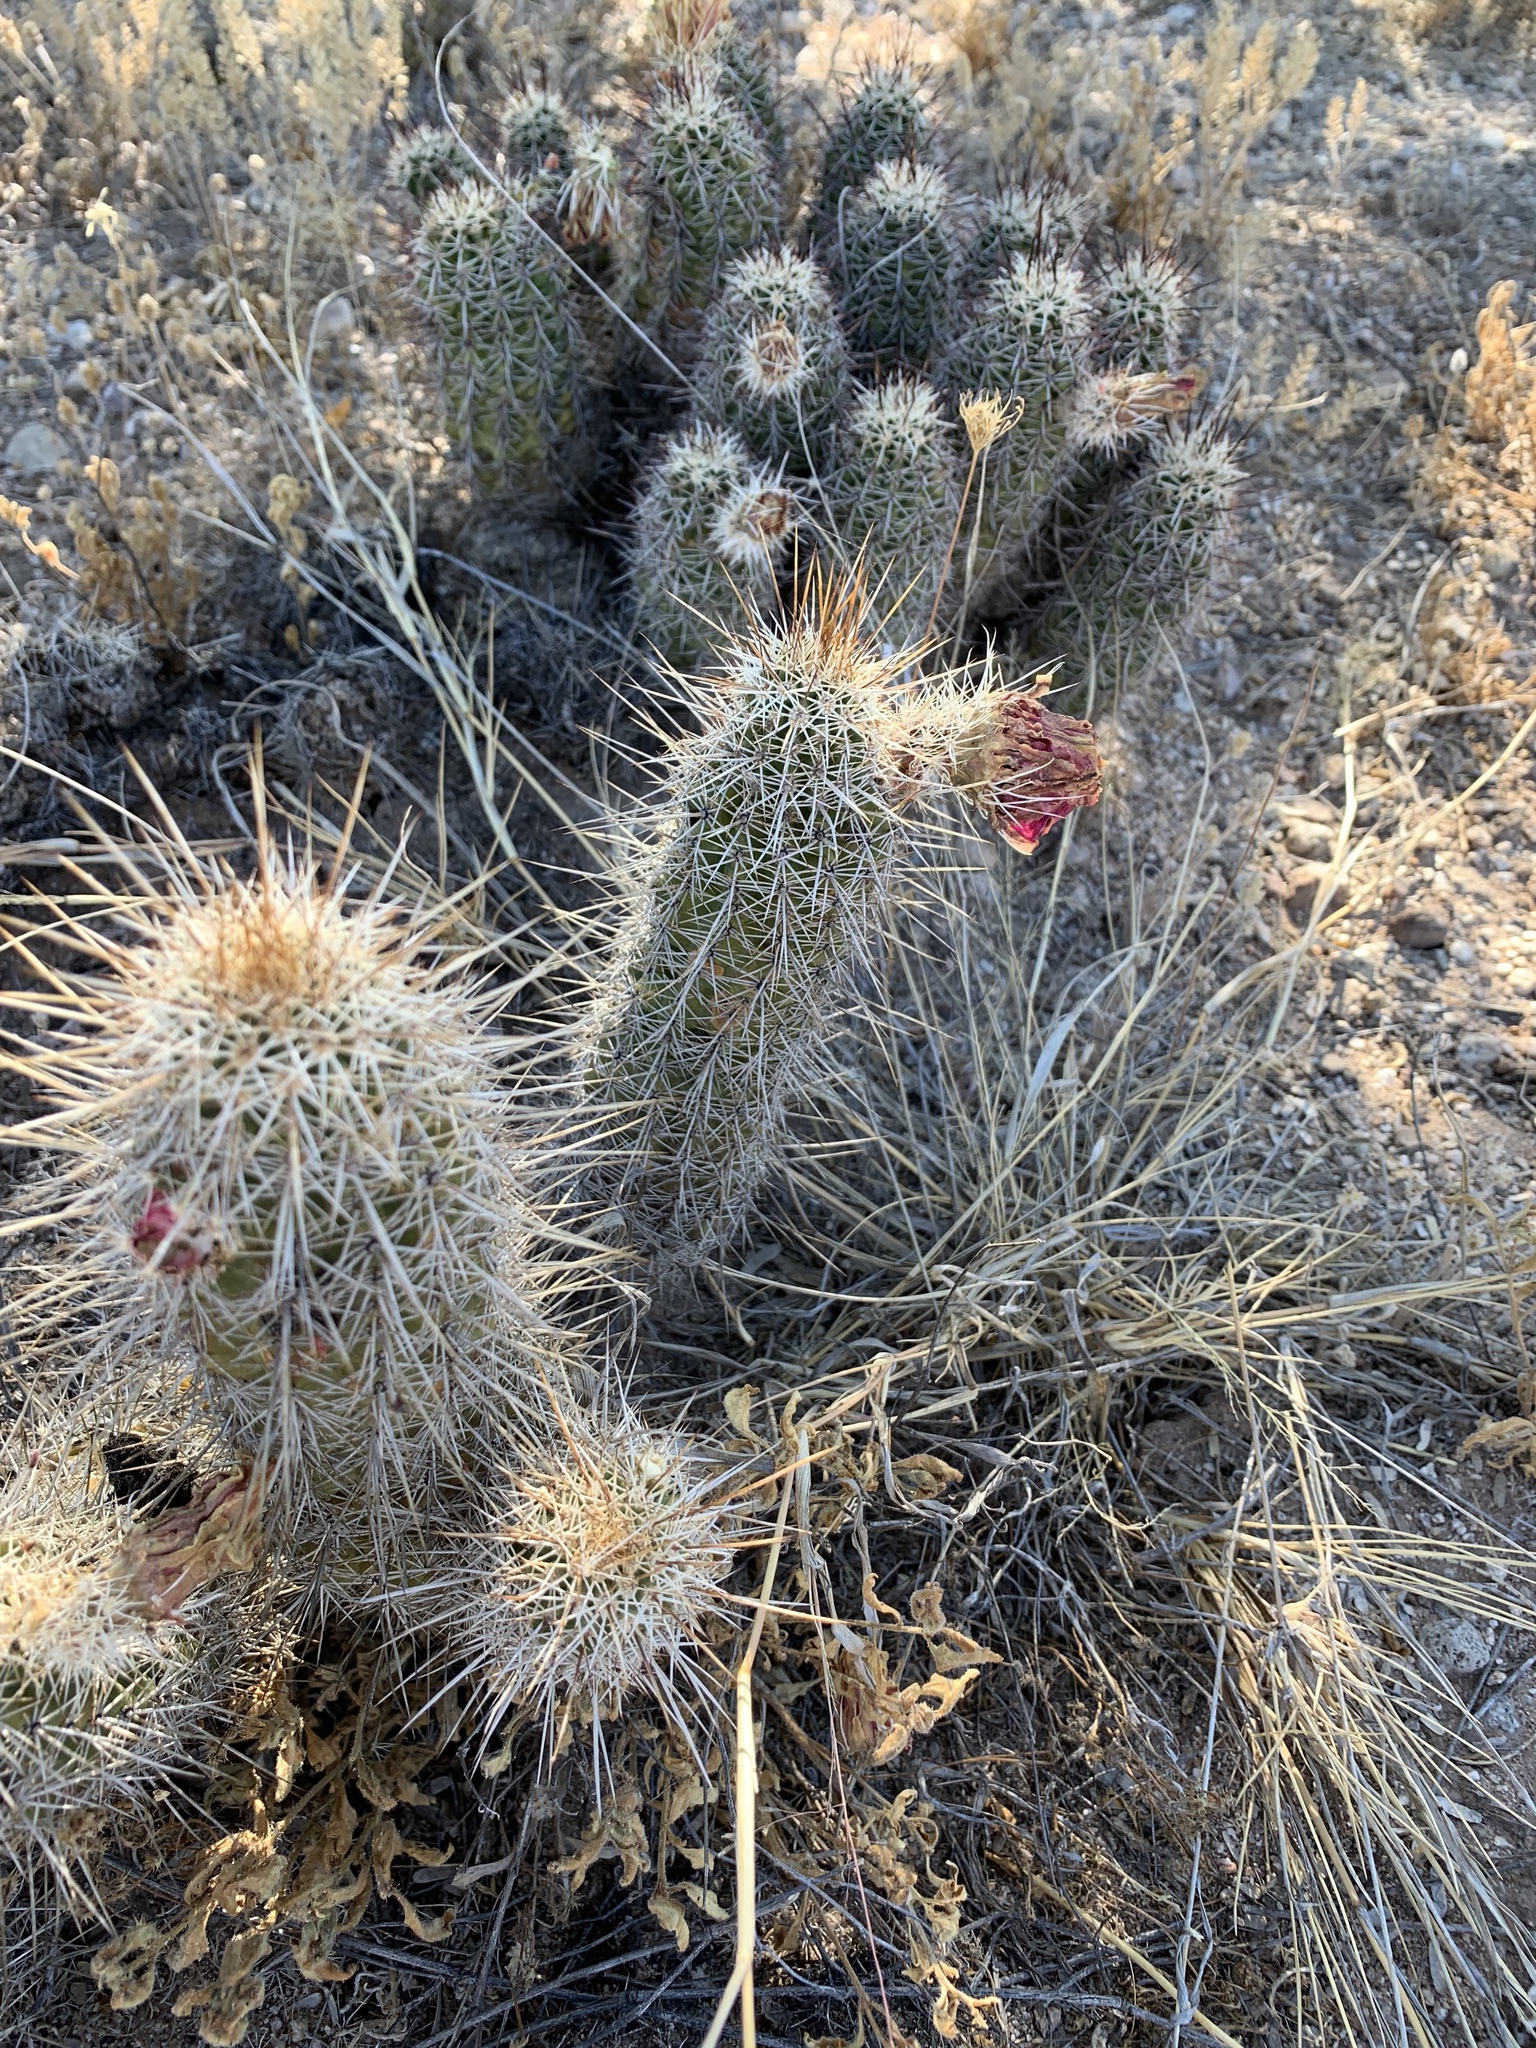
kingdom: Plantae
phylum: Tracheophyta
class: Magnoliopsida
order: Caryophyllales
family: Cactaceae
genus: Echinocereus
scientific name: Echinocereus fasciculatus
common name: Bundle hedgehog
